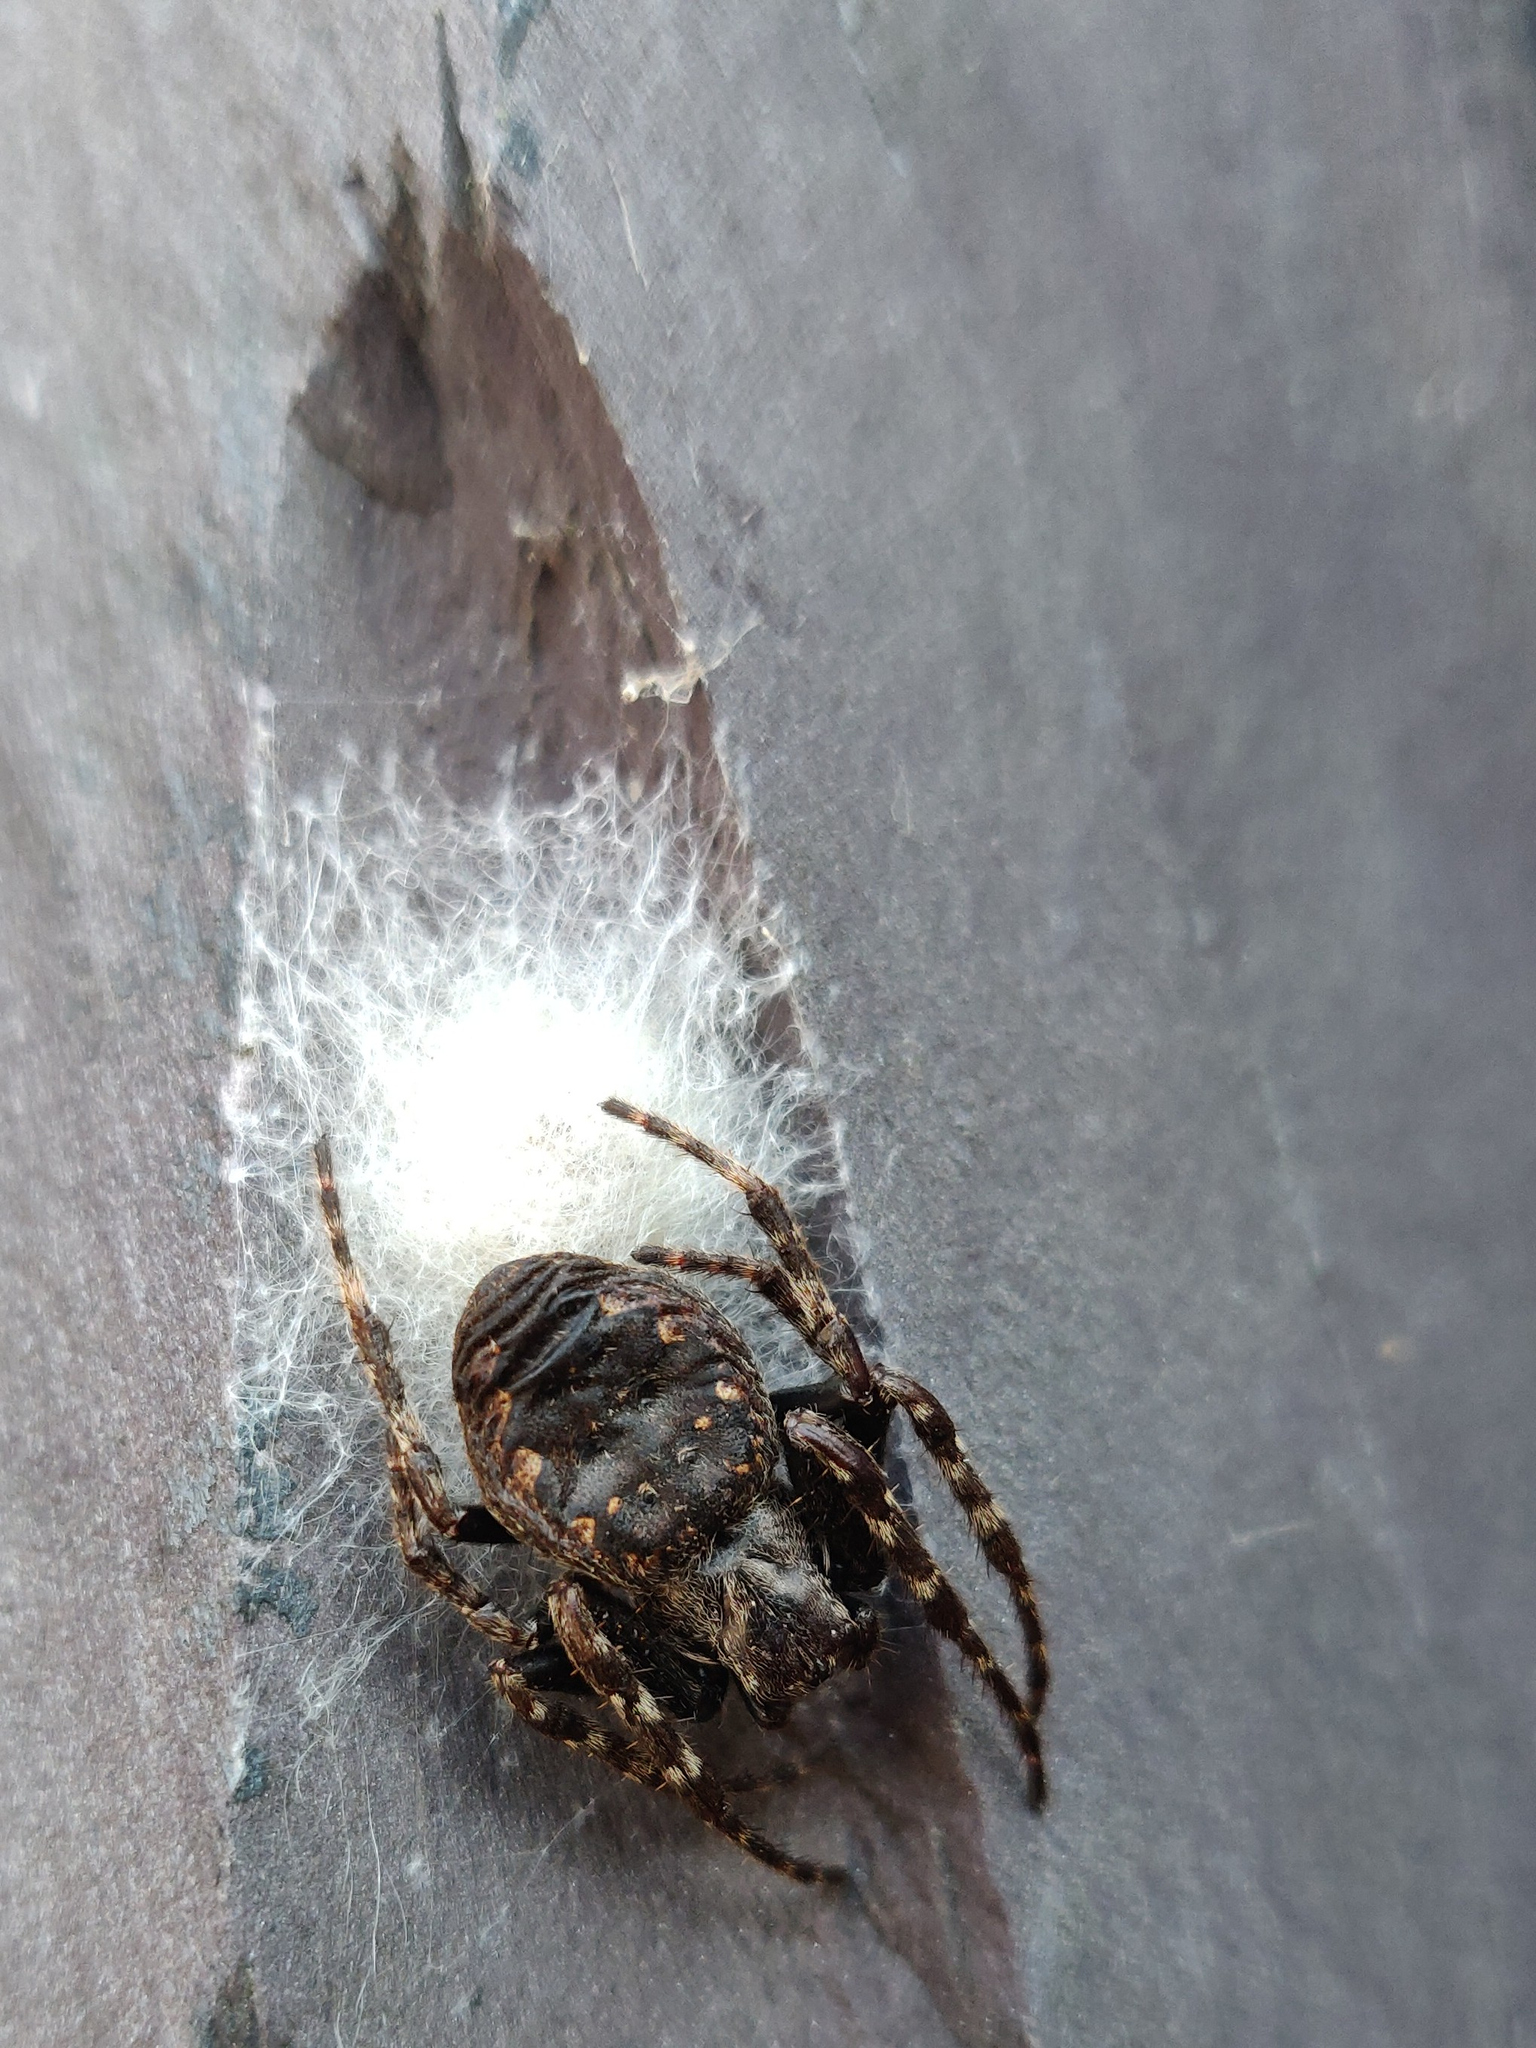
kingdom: Animalia
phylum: Arthropoda
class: Arachnida
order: Araneae
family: Araneidae
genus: Nuctenea
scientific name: Nuctenea umbratica
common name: Toad spider
